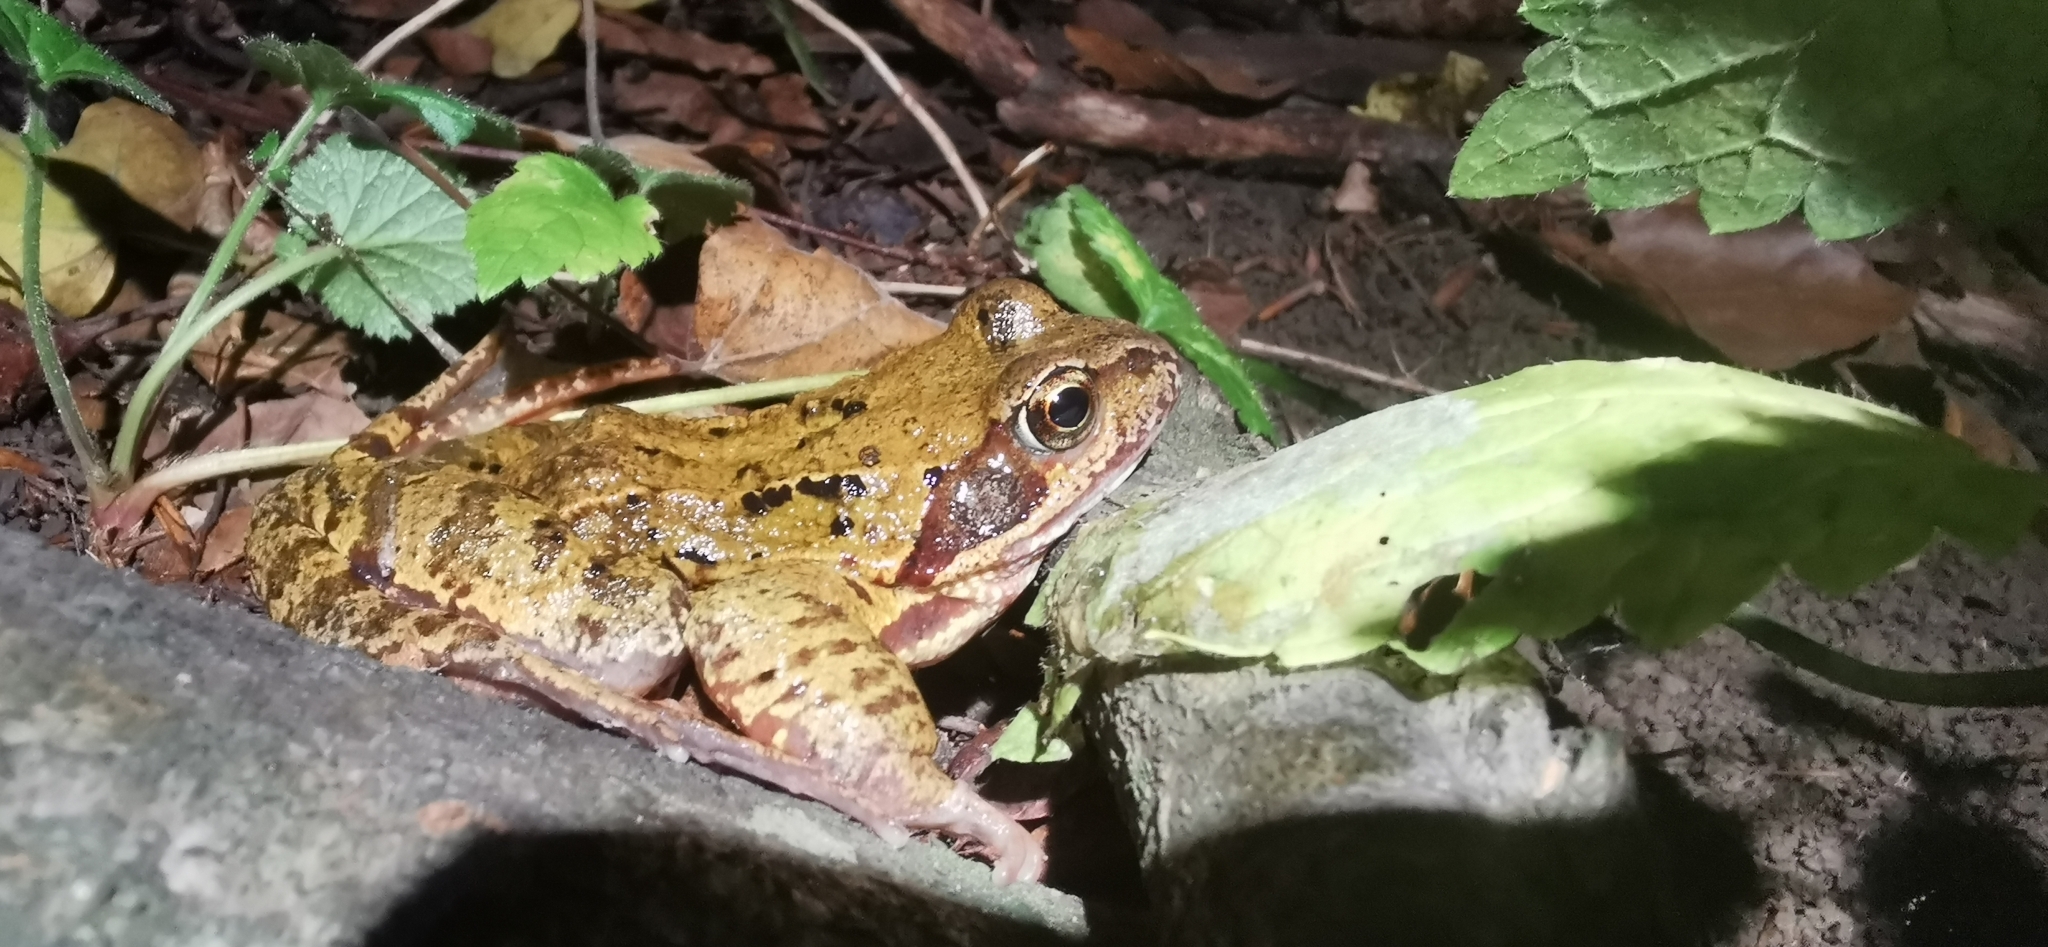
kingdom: Animalia
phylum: Chordata
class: Amphibia
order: Anura
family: Ranidae
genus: Rana
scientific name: Rana temporaria
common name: Common frog
